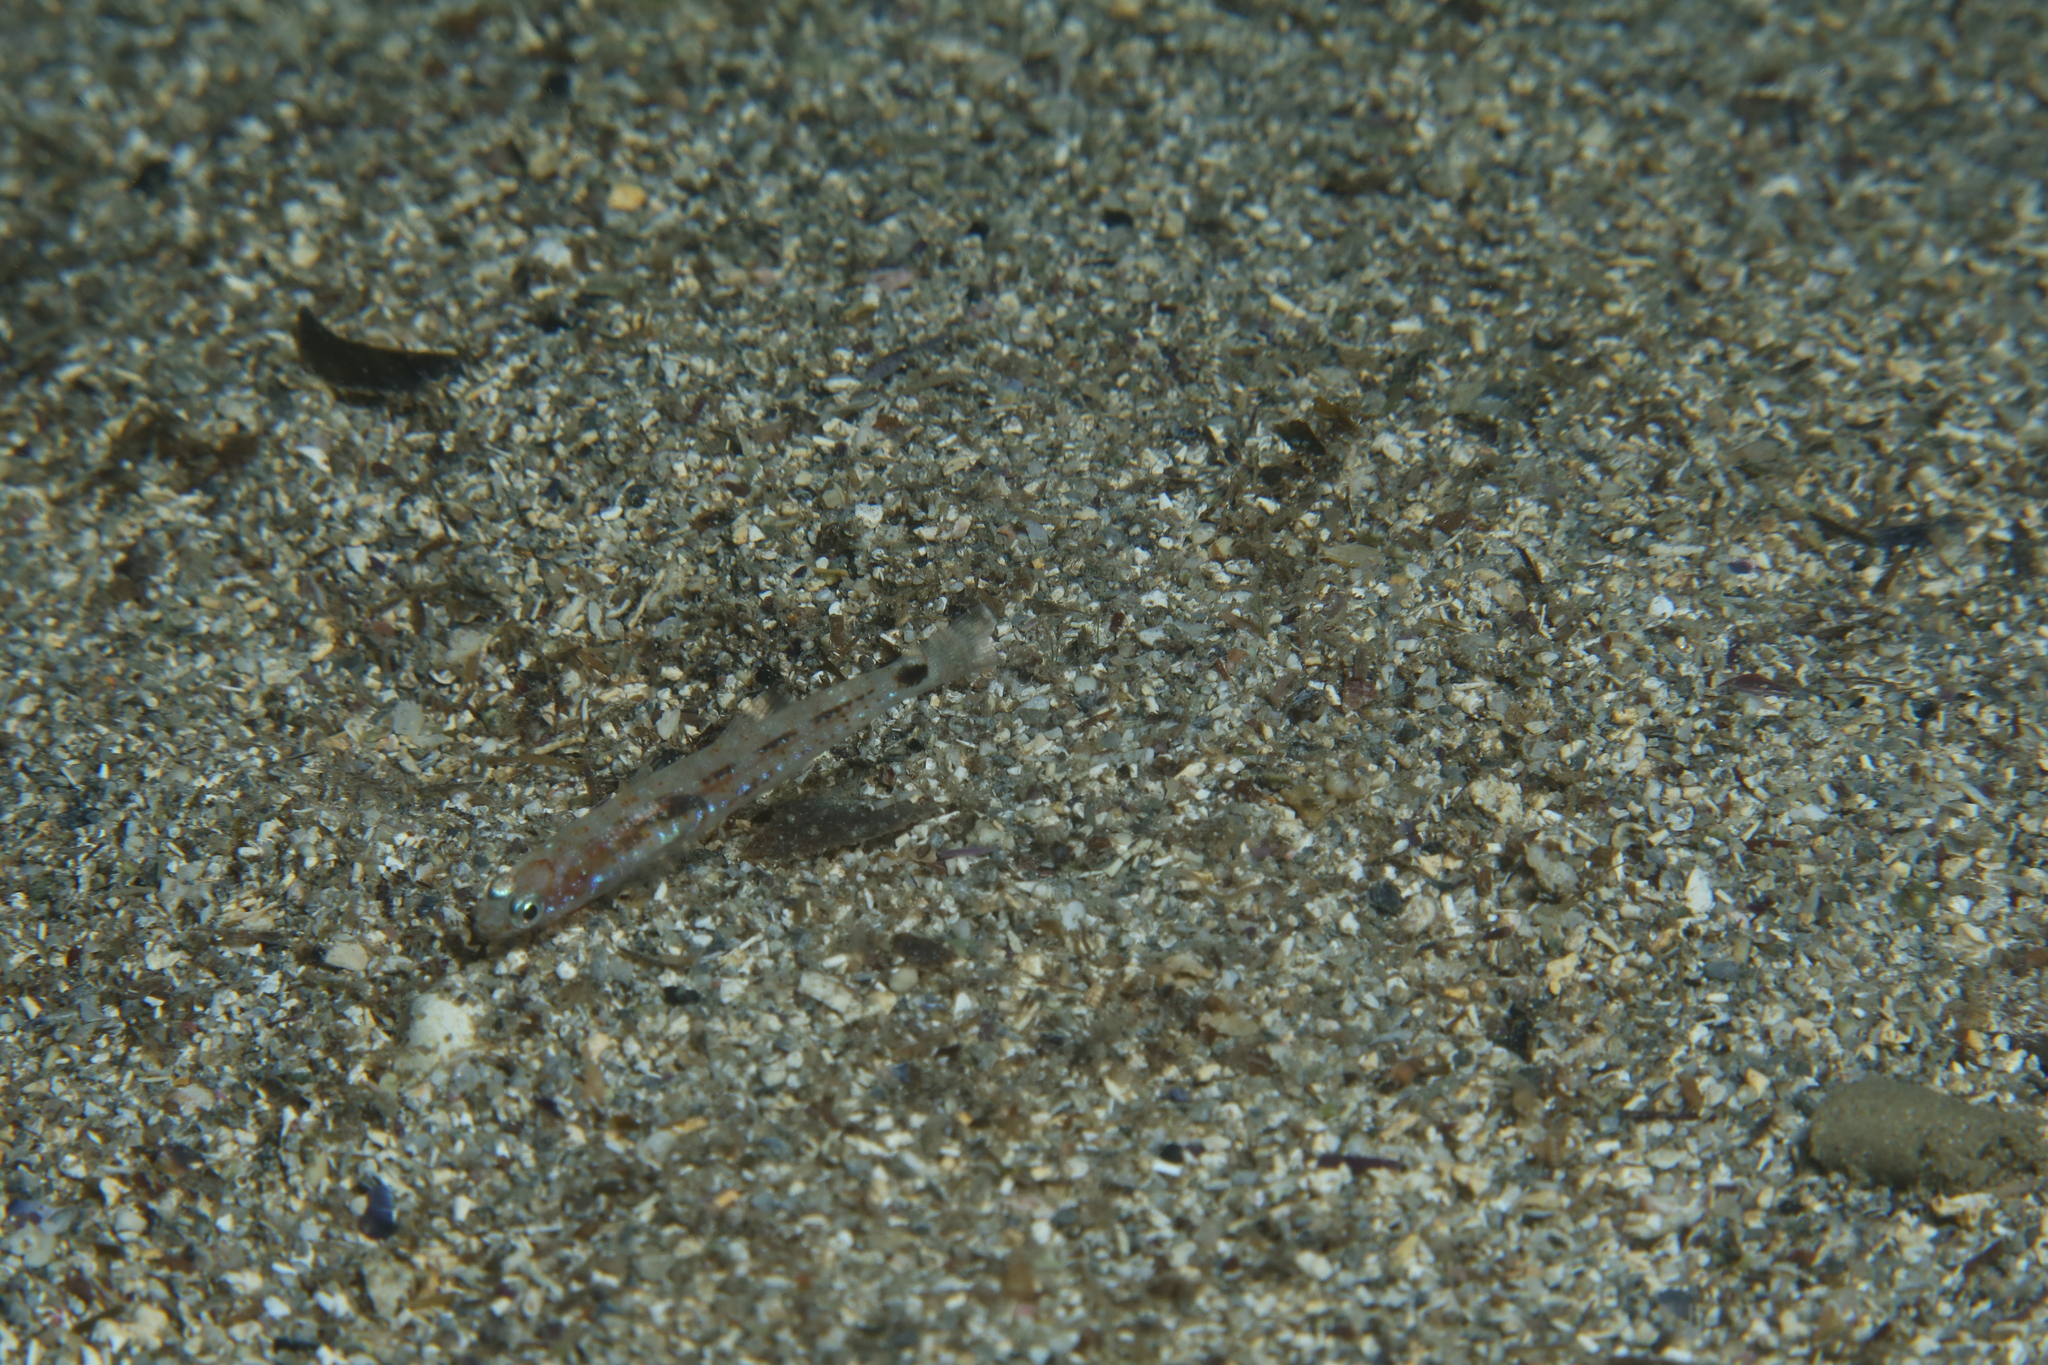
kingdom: Animalia
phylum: Chordata
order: Perciformes
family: Gobiidae
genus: Pseudaphya
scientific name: Pseudaphya ferreri
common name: Ferrer's goby
